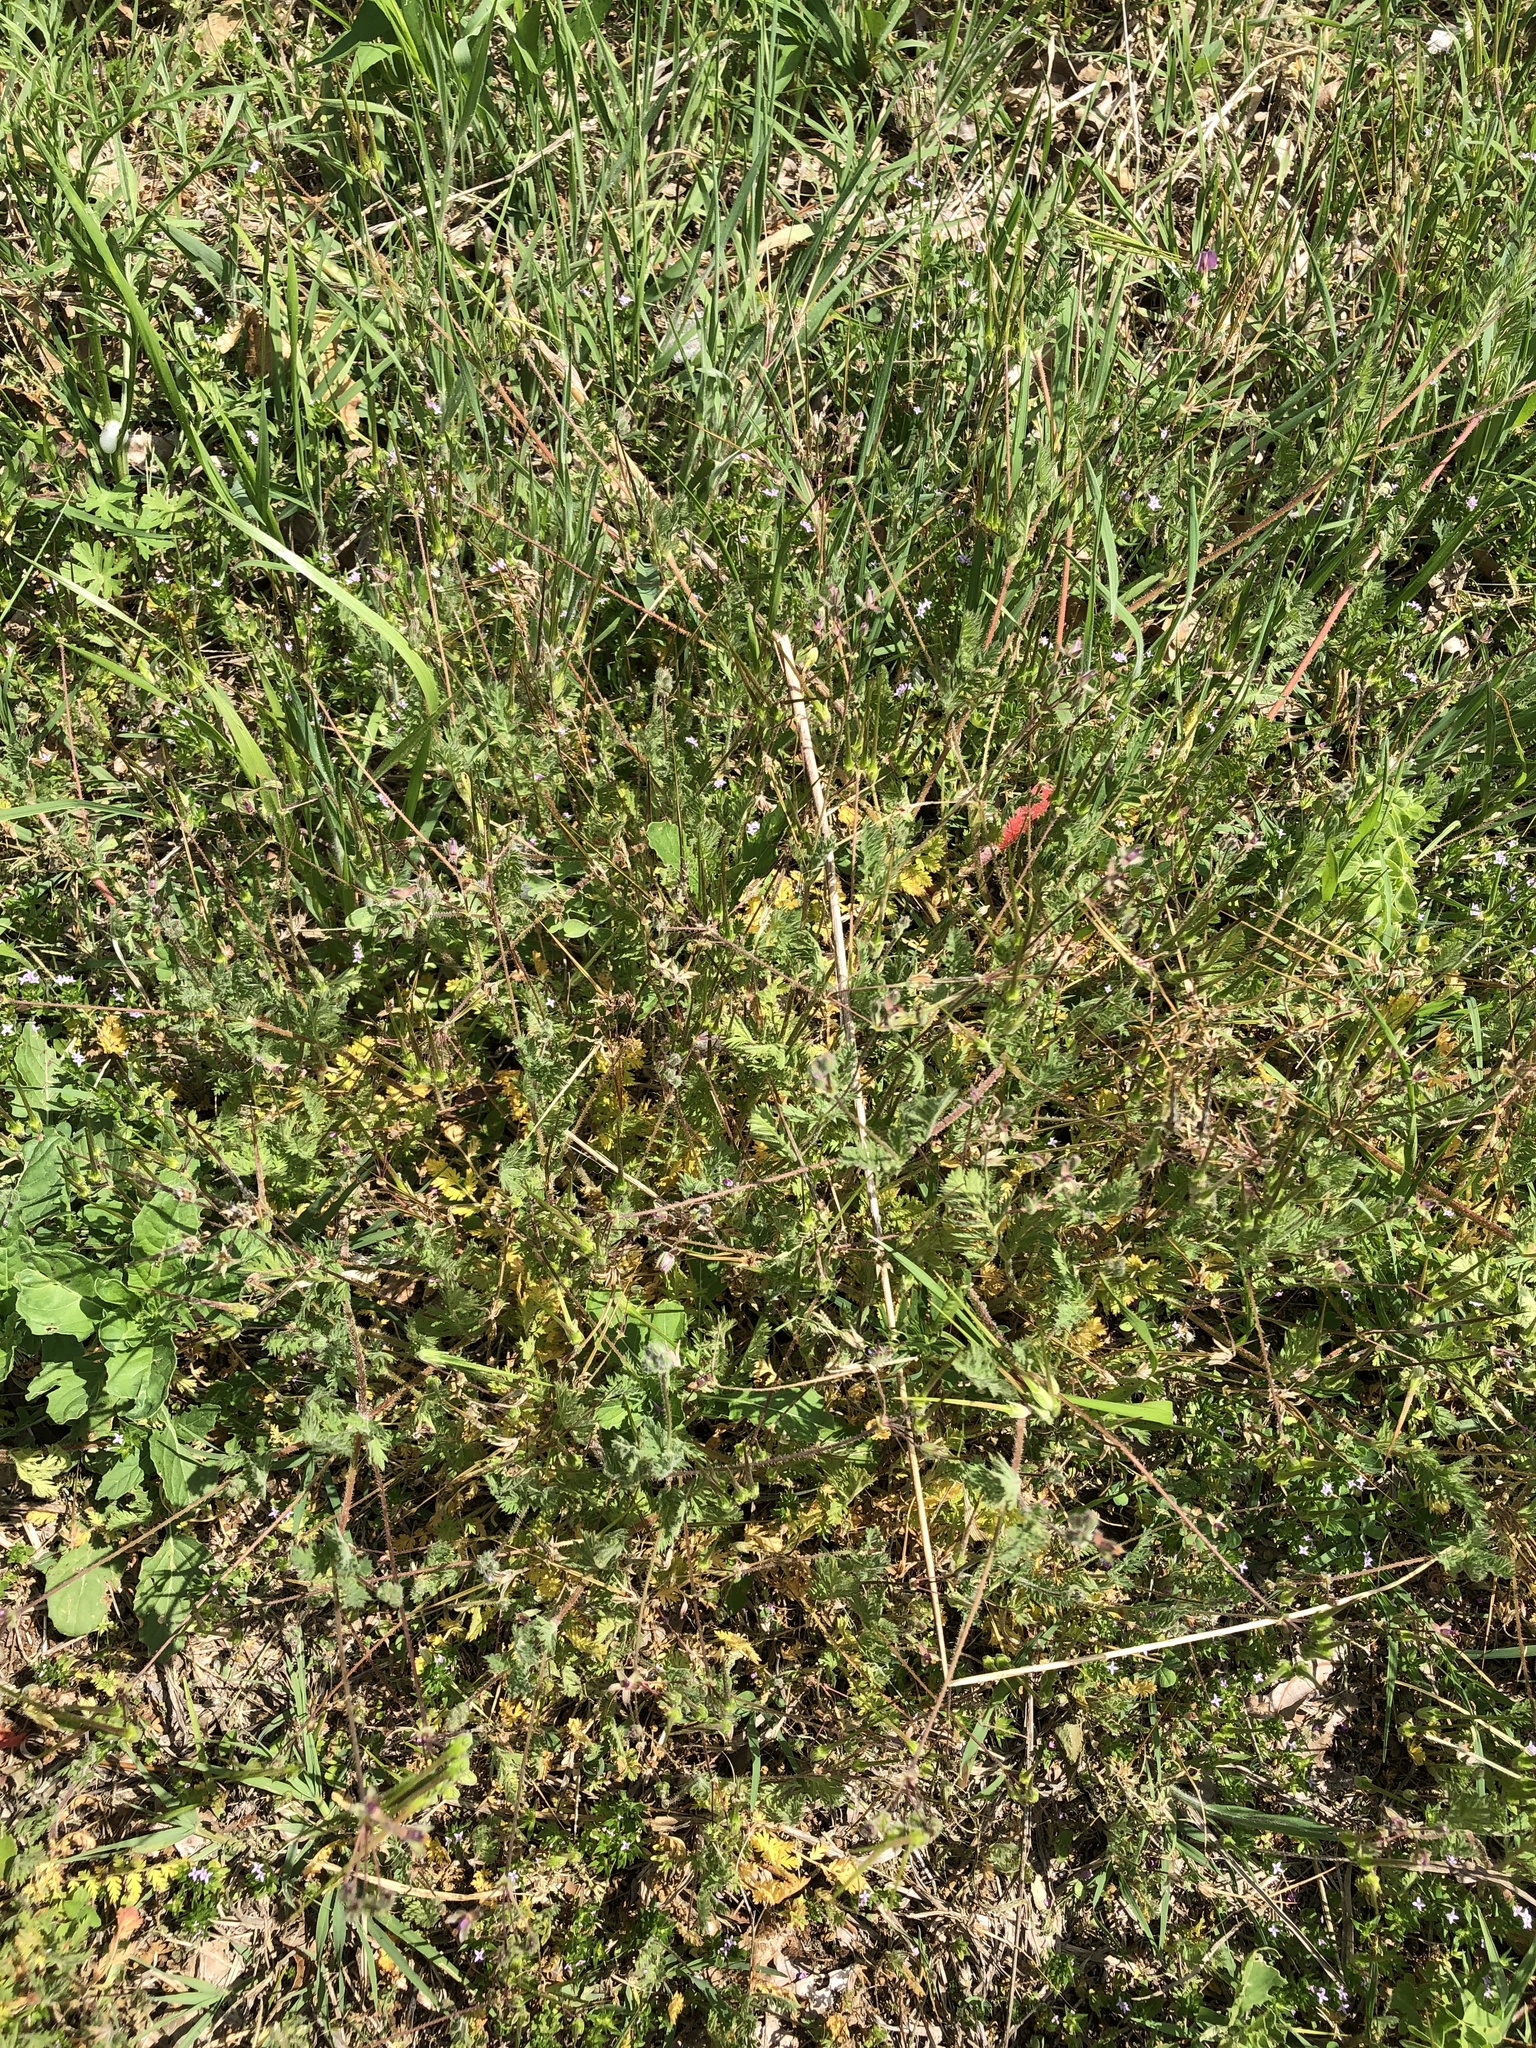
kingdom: Plantae
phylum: Tracheophyta
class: Magnoliopsida
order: Geraniales
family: Geraniaceae
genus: Erodium
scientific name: Erodium cicutarium
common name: Common stork's-bill
